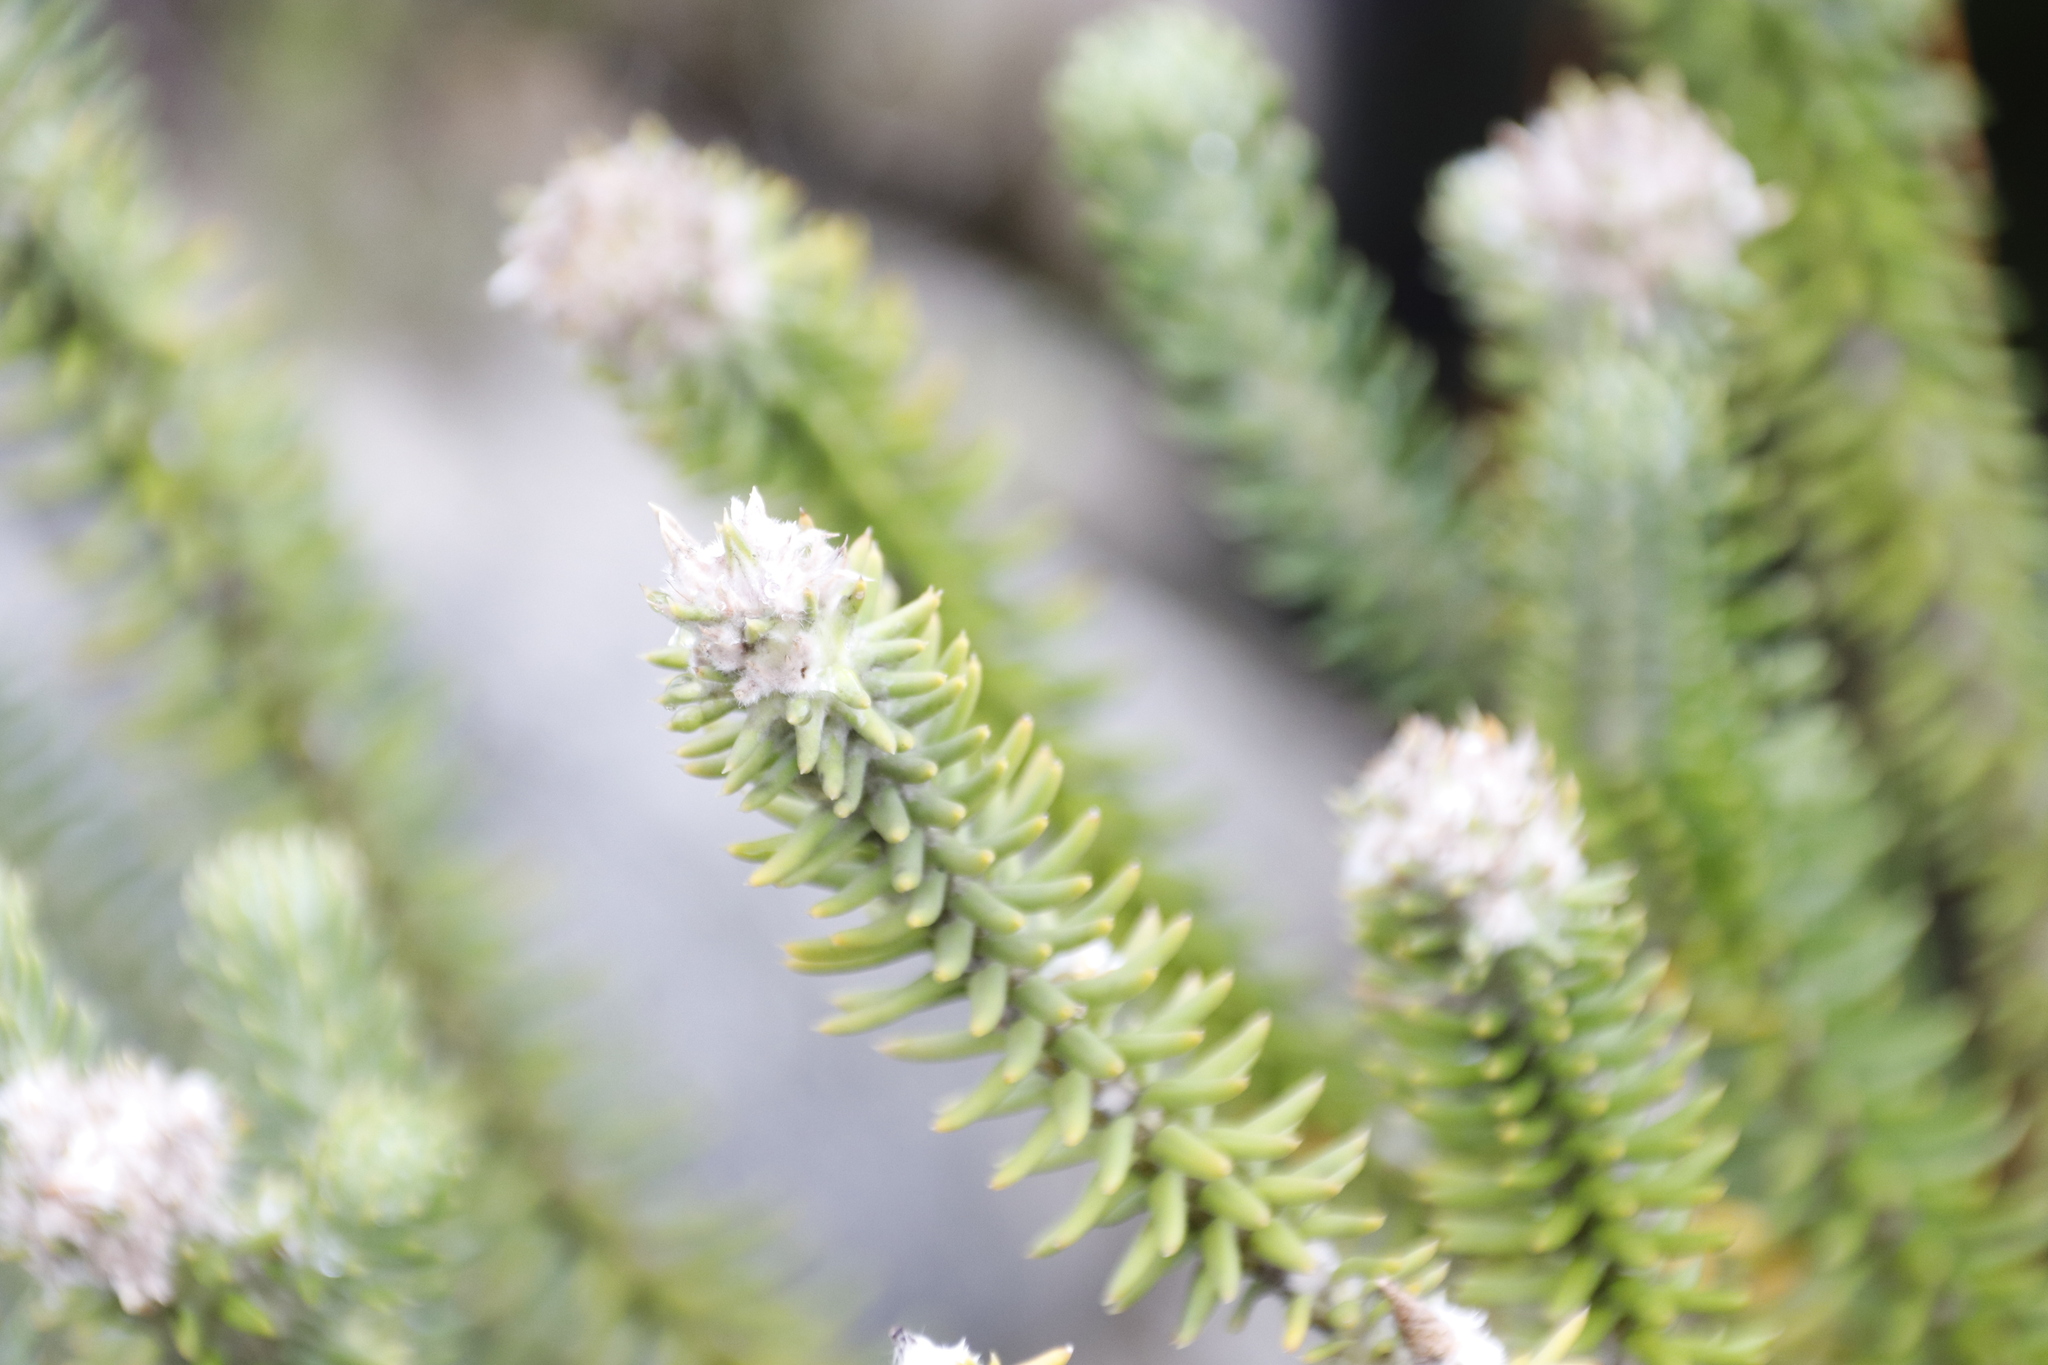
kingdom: Plantae
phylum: Tracheophyta
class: Magnoliopsida
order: Lamiales
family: Stilbaceae
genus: Kogelbergia
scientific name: Kogelbergia verticillata
